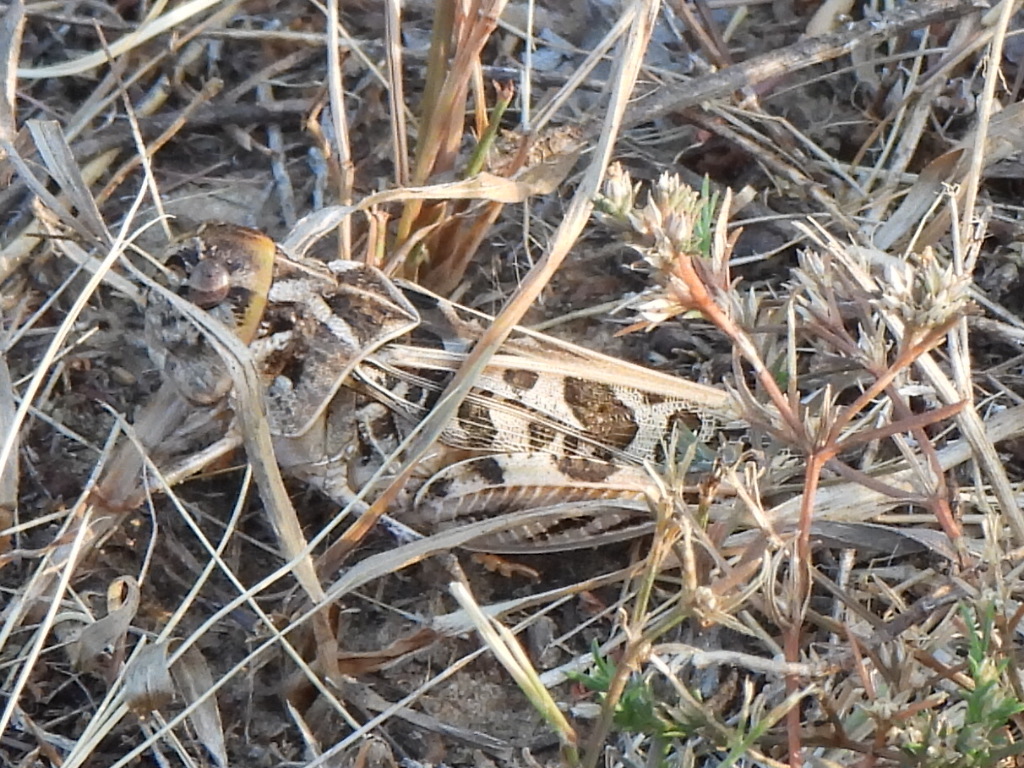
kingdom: Animalia
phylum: Arthropoda
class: Insecta
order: Orthoptera
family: Acrididae
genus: Hippiscus
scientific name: Hippiscus ocelote
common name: Wrinkled grasshopper
